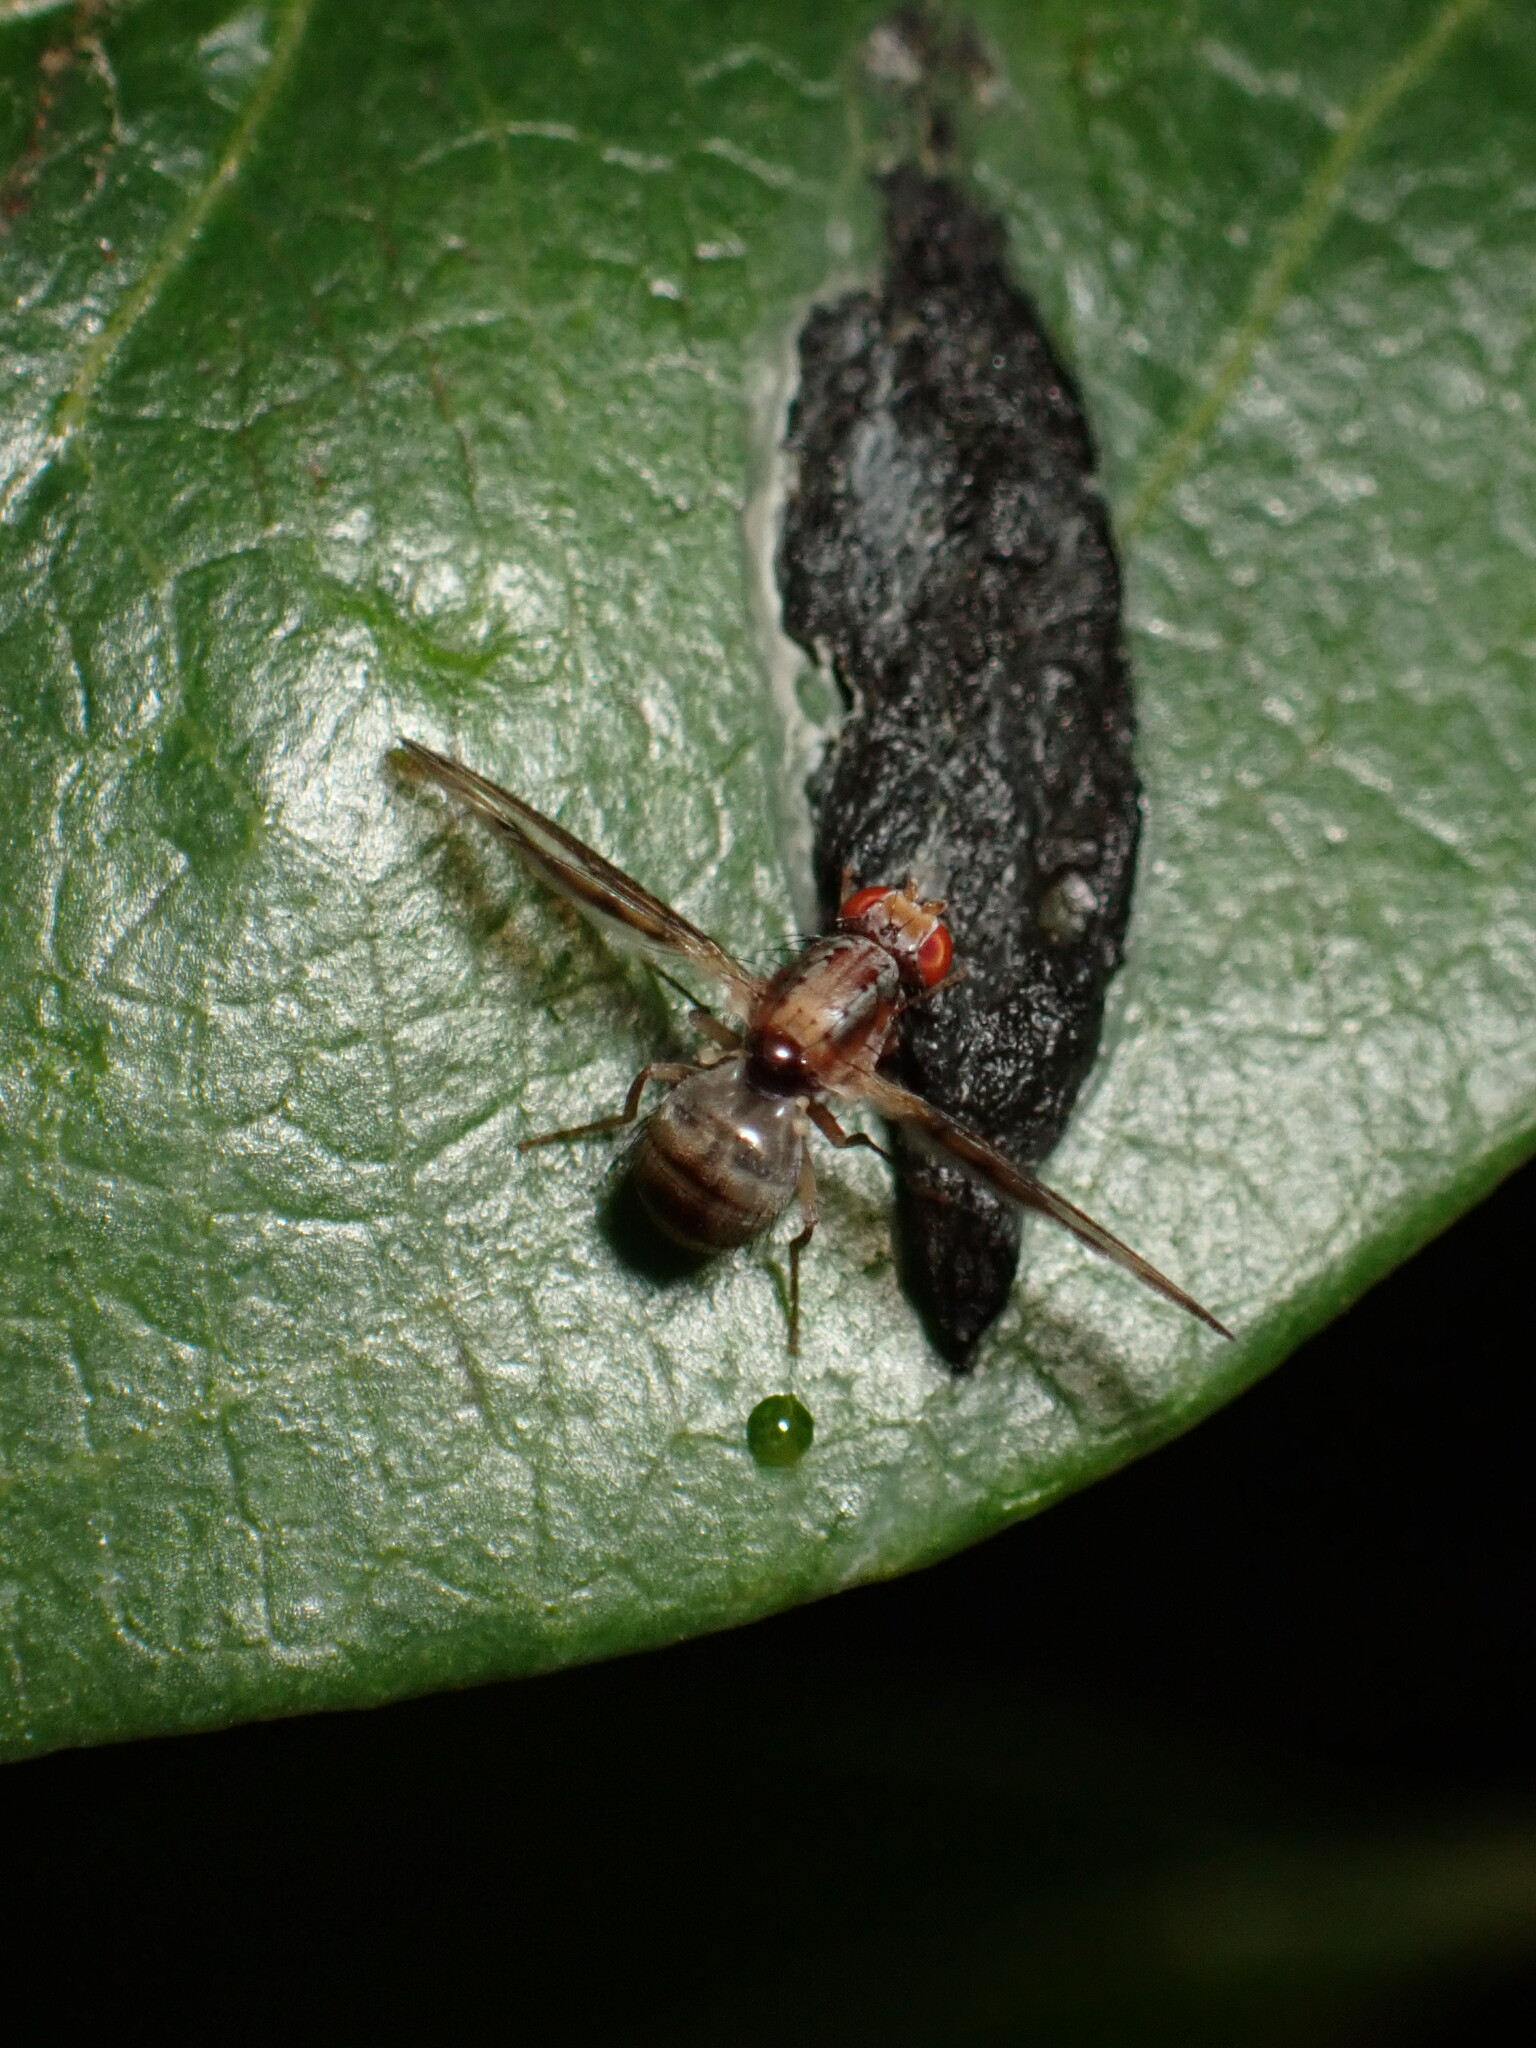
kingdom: Animalia
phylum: Arthropoda
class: Insecta
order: Diptera
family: Pallopteridae
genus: Toxonevra
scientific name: Toxonevra muliebris
